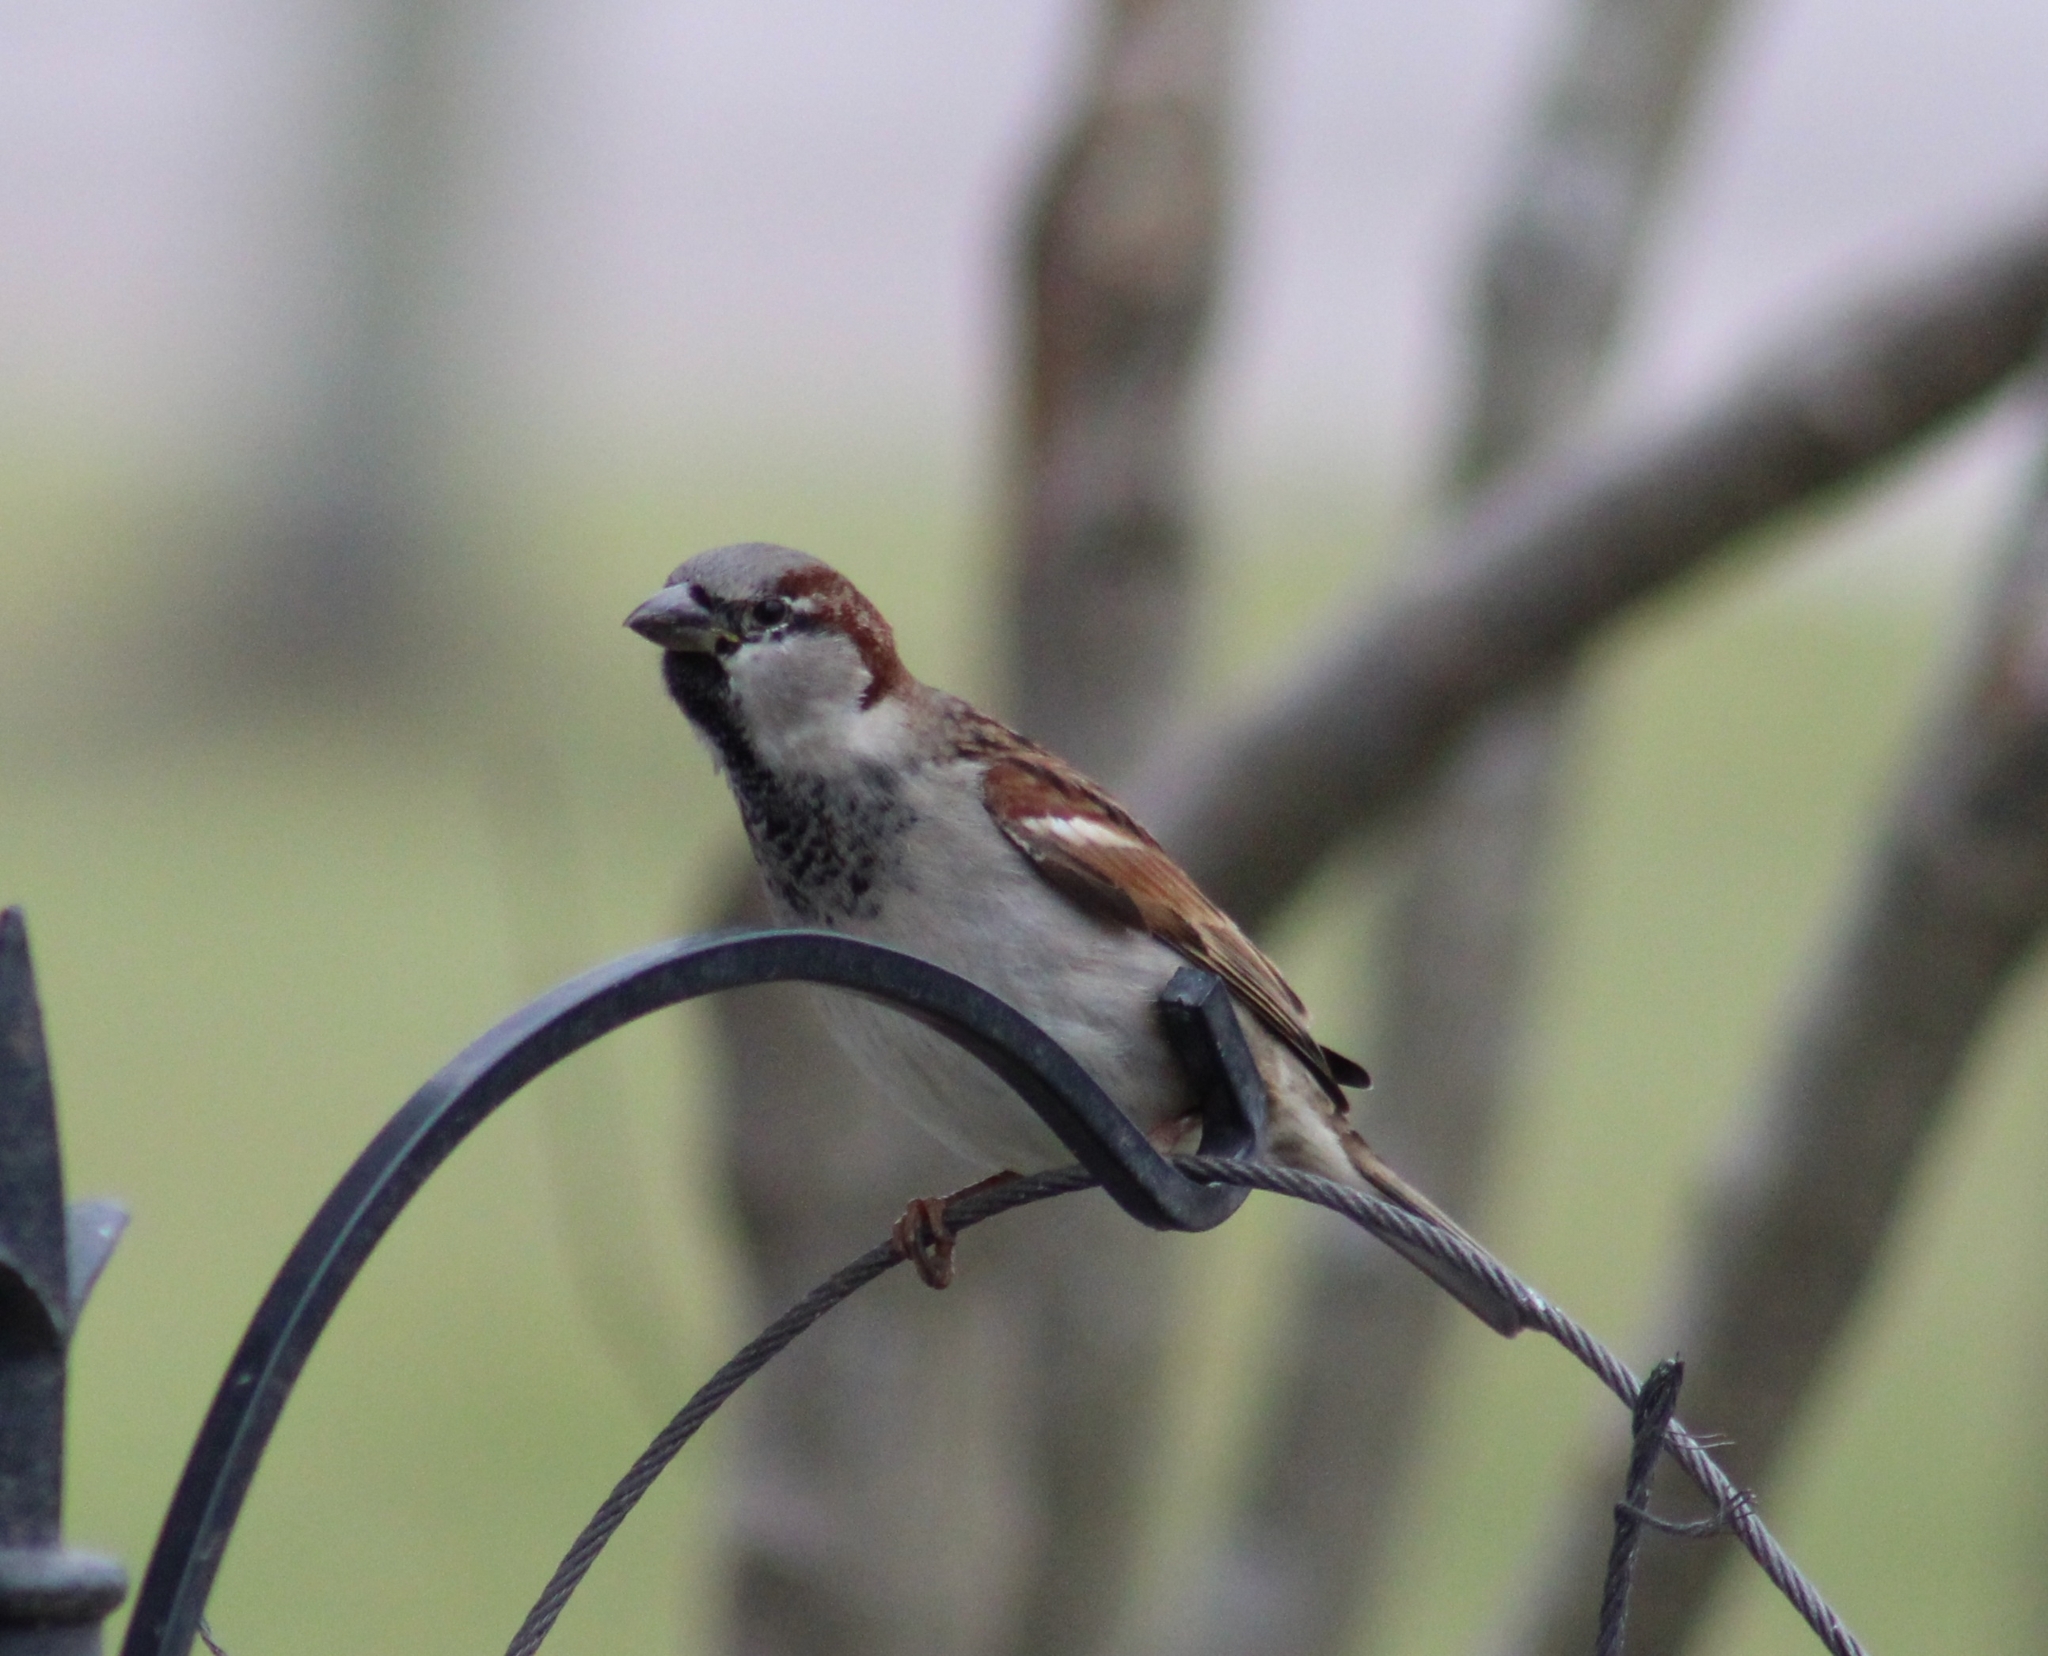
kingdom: Animalia
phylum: Chordata
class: Aves
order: Passeriformes
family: Passeridae
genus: Passer
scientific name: Passer domesticus
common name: House sparrow
